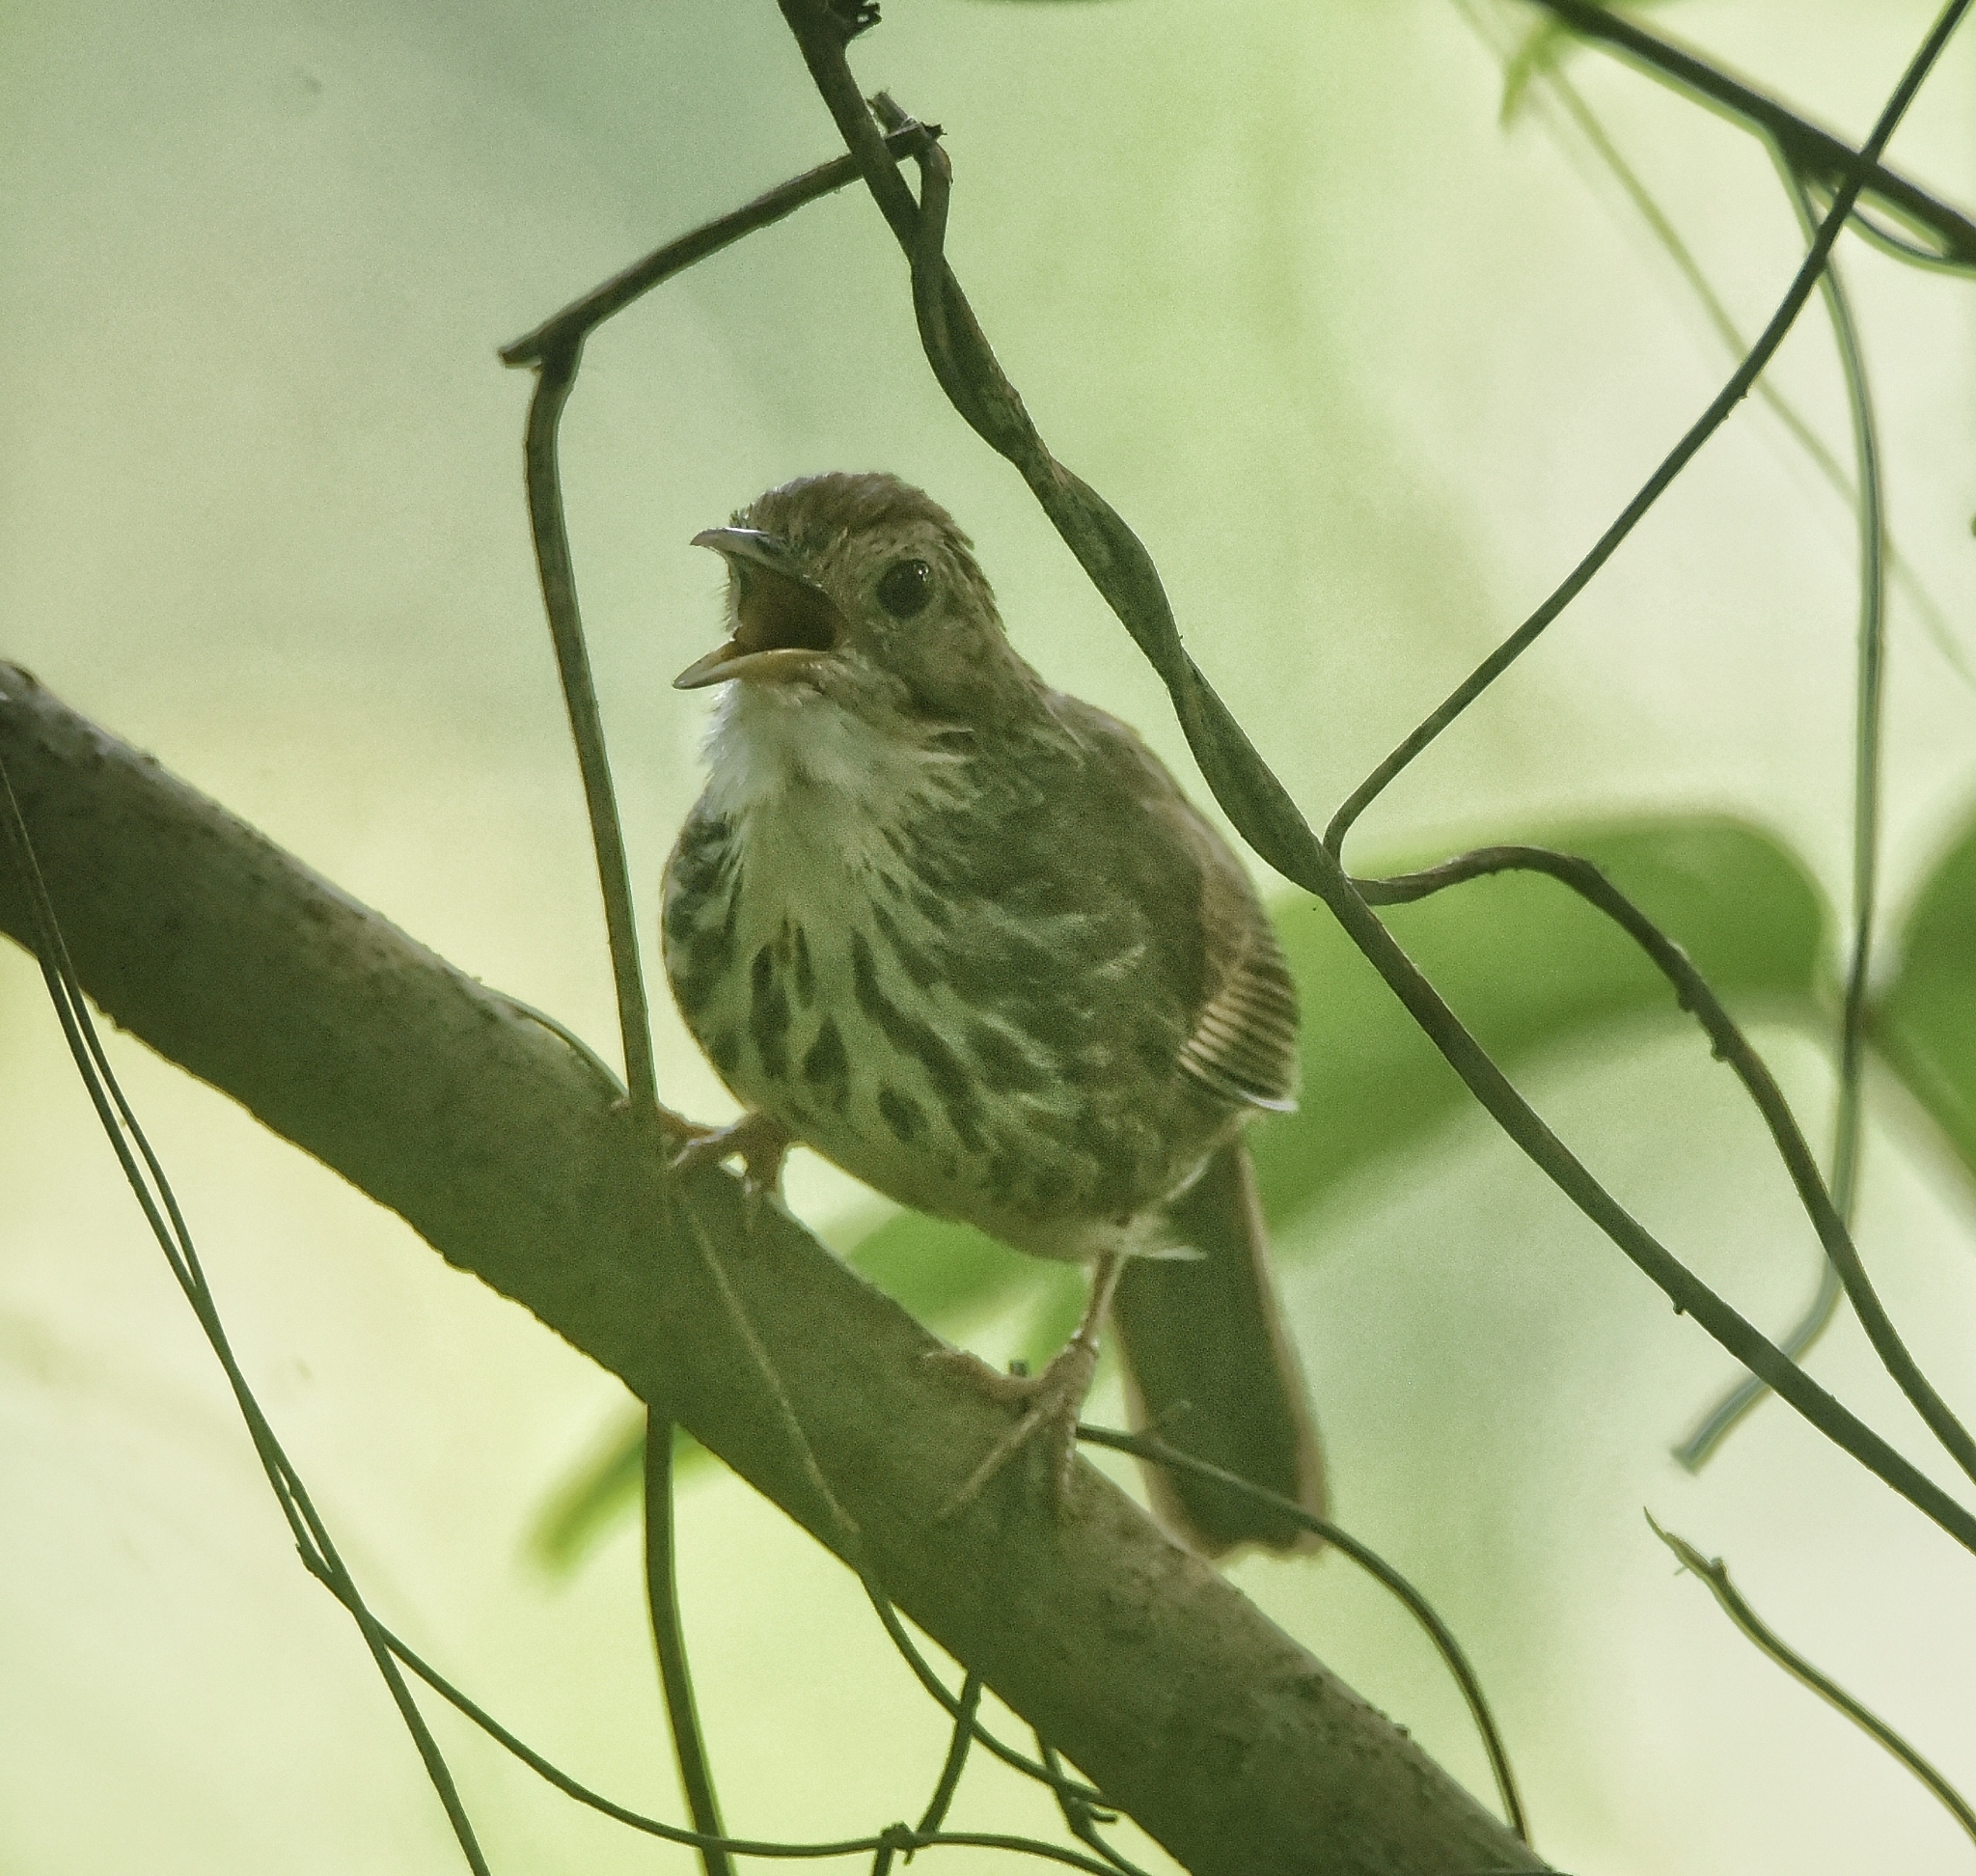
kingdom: Animalia
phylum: Chordata
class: Aves
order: Passeriformes
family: Pellorneidae
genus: Pellorneum
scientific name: Pellorneum ruficeps
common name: Puff-throated babbler
